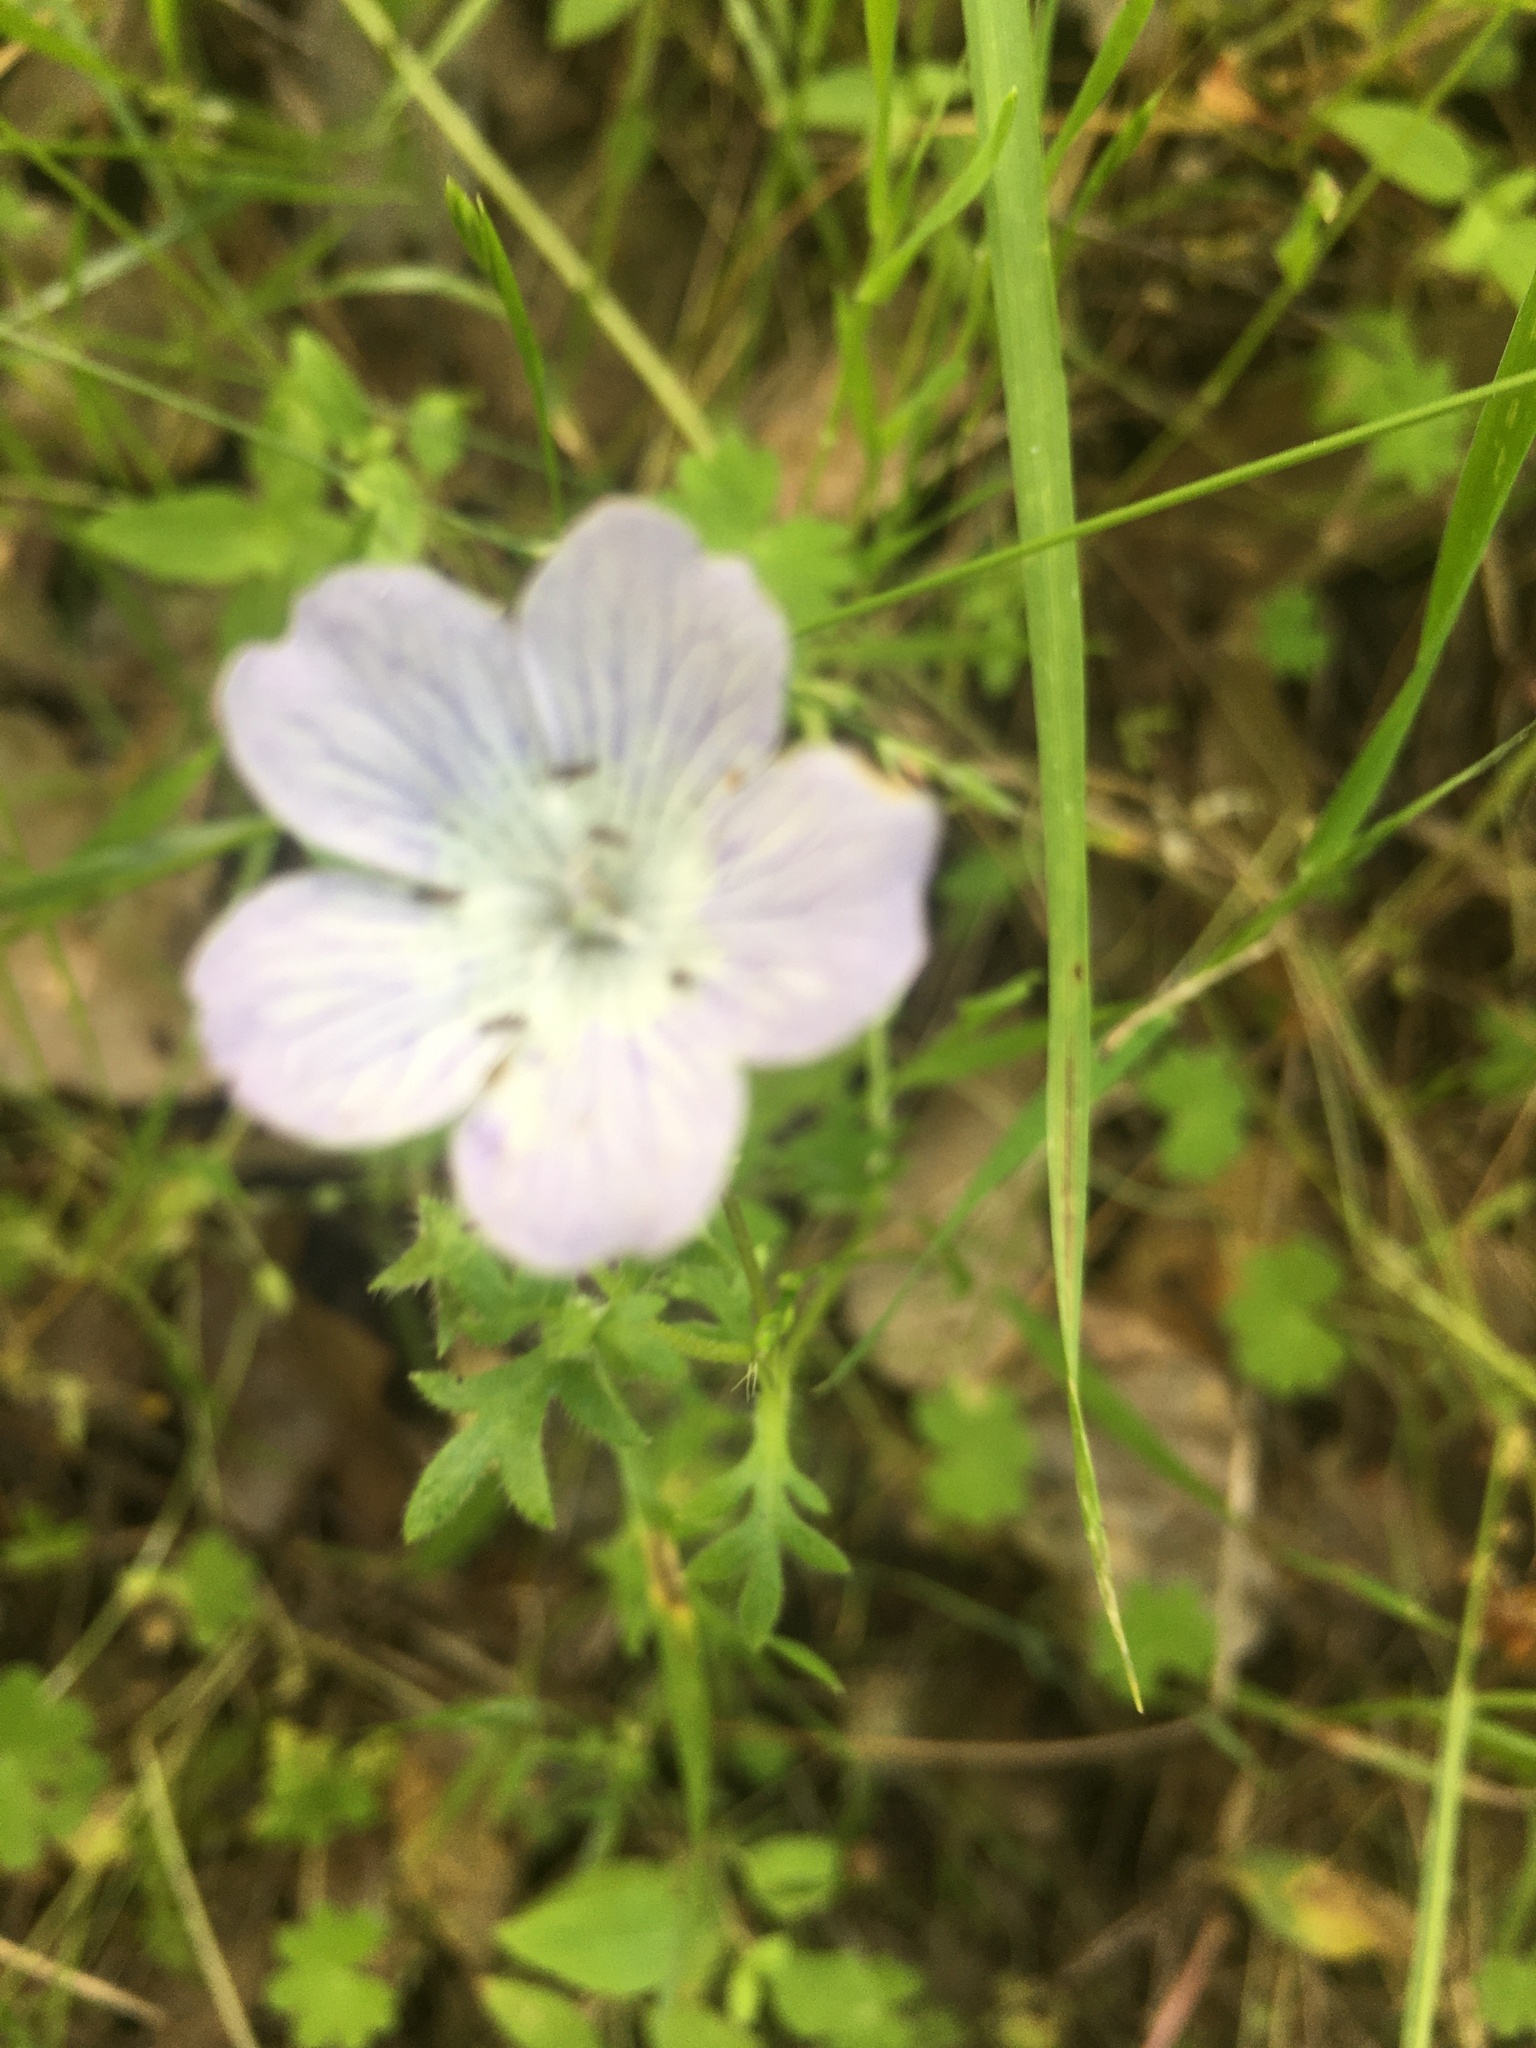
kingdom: Plantae
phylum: Tracheophyta
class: Magnoliopsida
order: Boraginales
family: Hydrophyllaceae
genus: Nemophila
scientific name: Nemophila menziesii
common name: Baby's-blue-eyes
